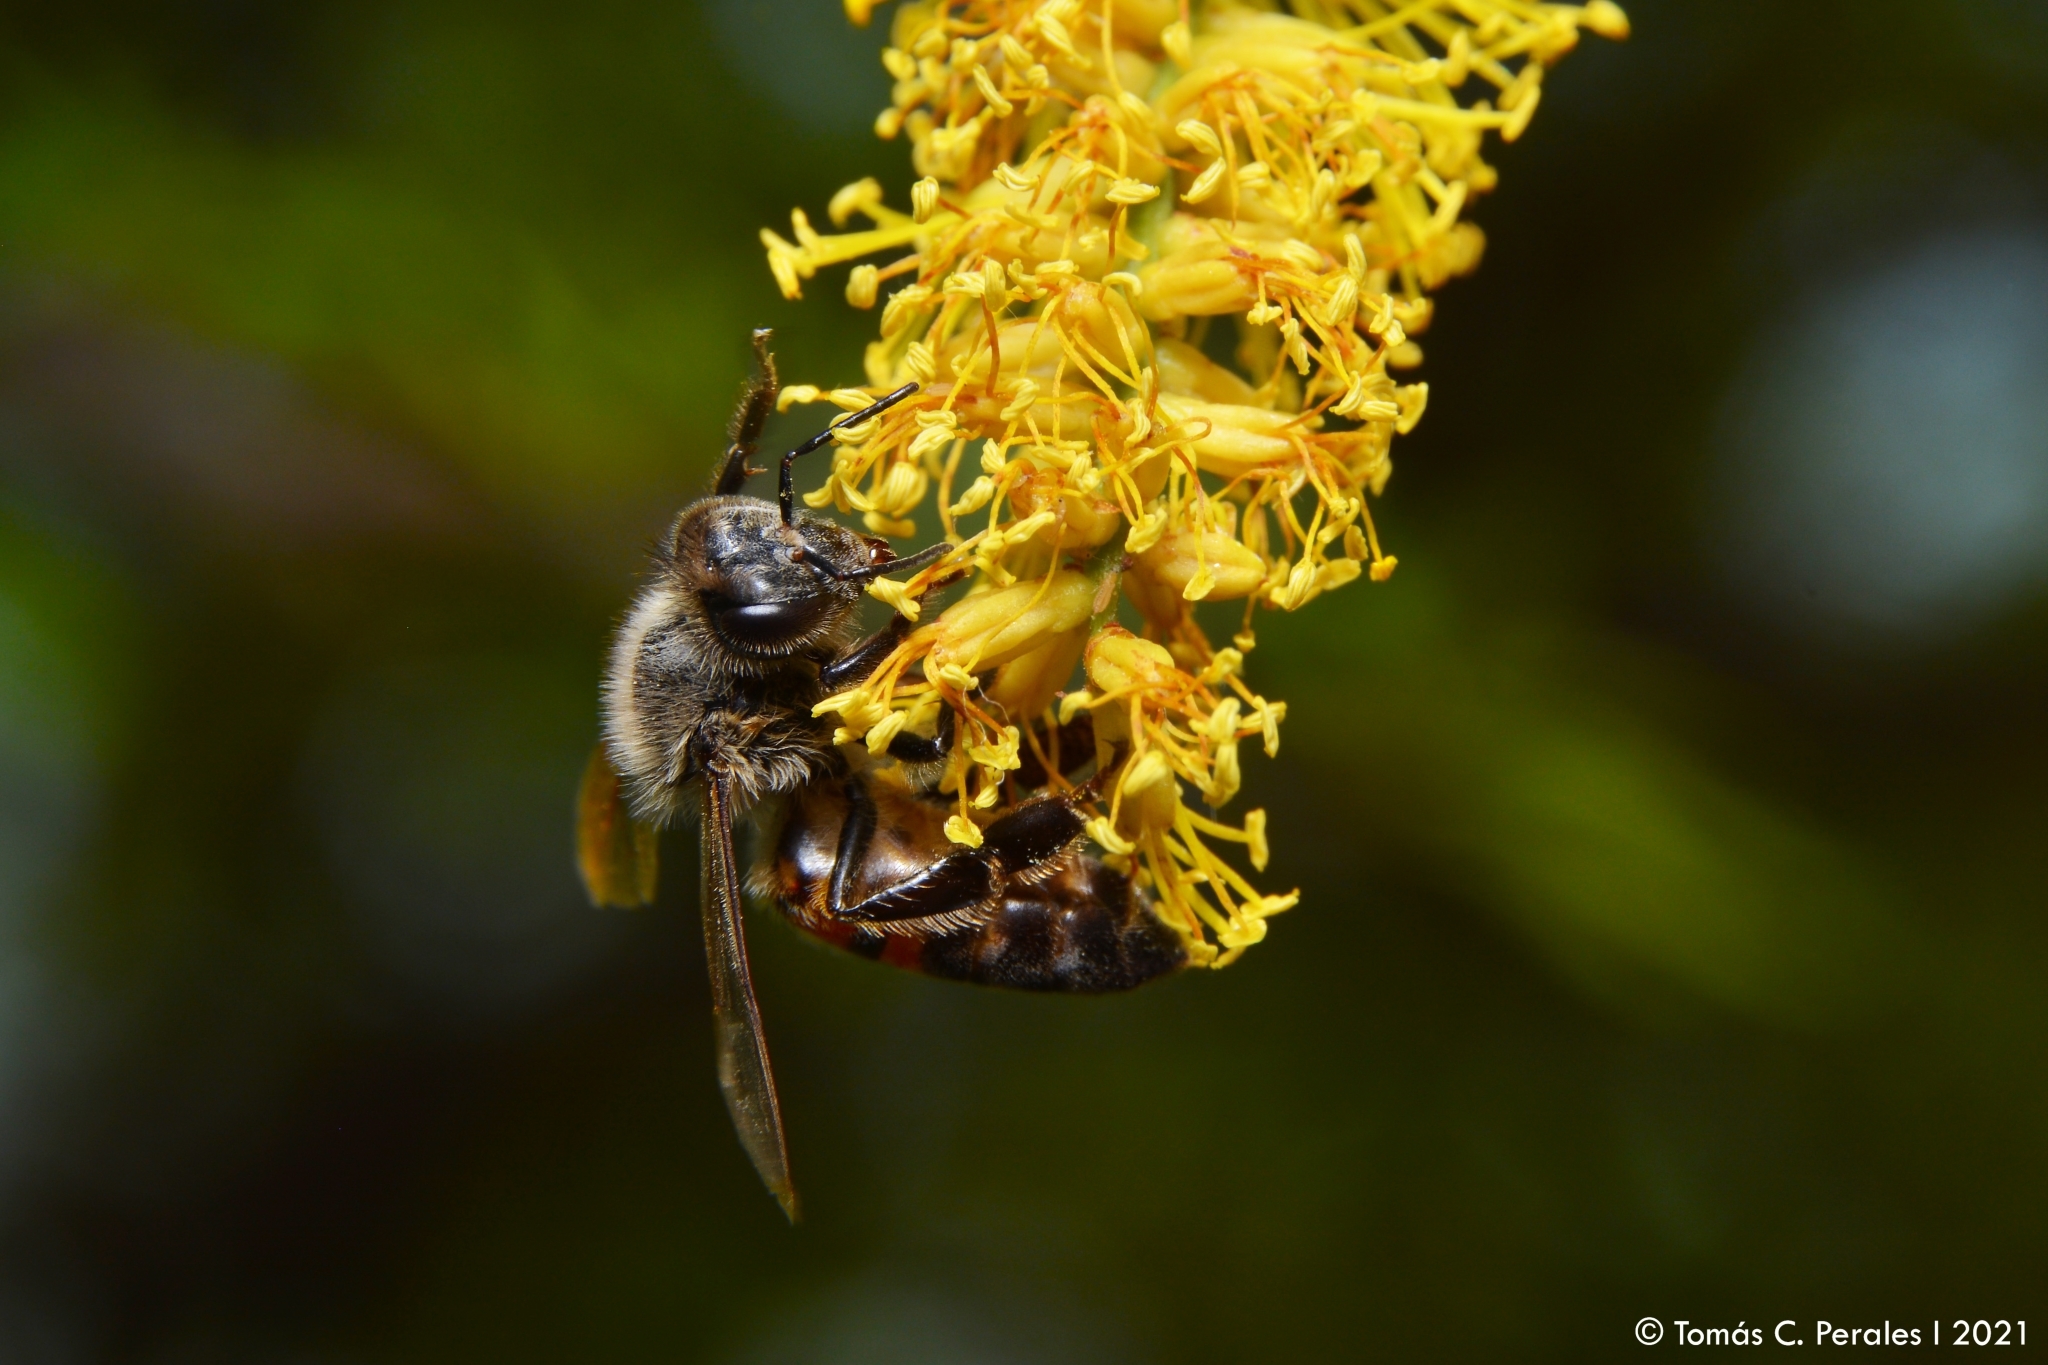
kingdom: Animalia
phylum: Arthropoda
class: Insecta
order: Hymenoptera
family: Apidae
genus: Apis
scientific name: Apis mellifera
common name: Honey bee
